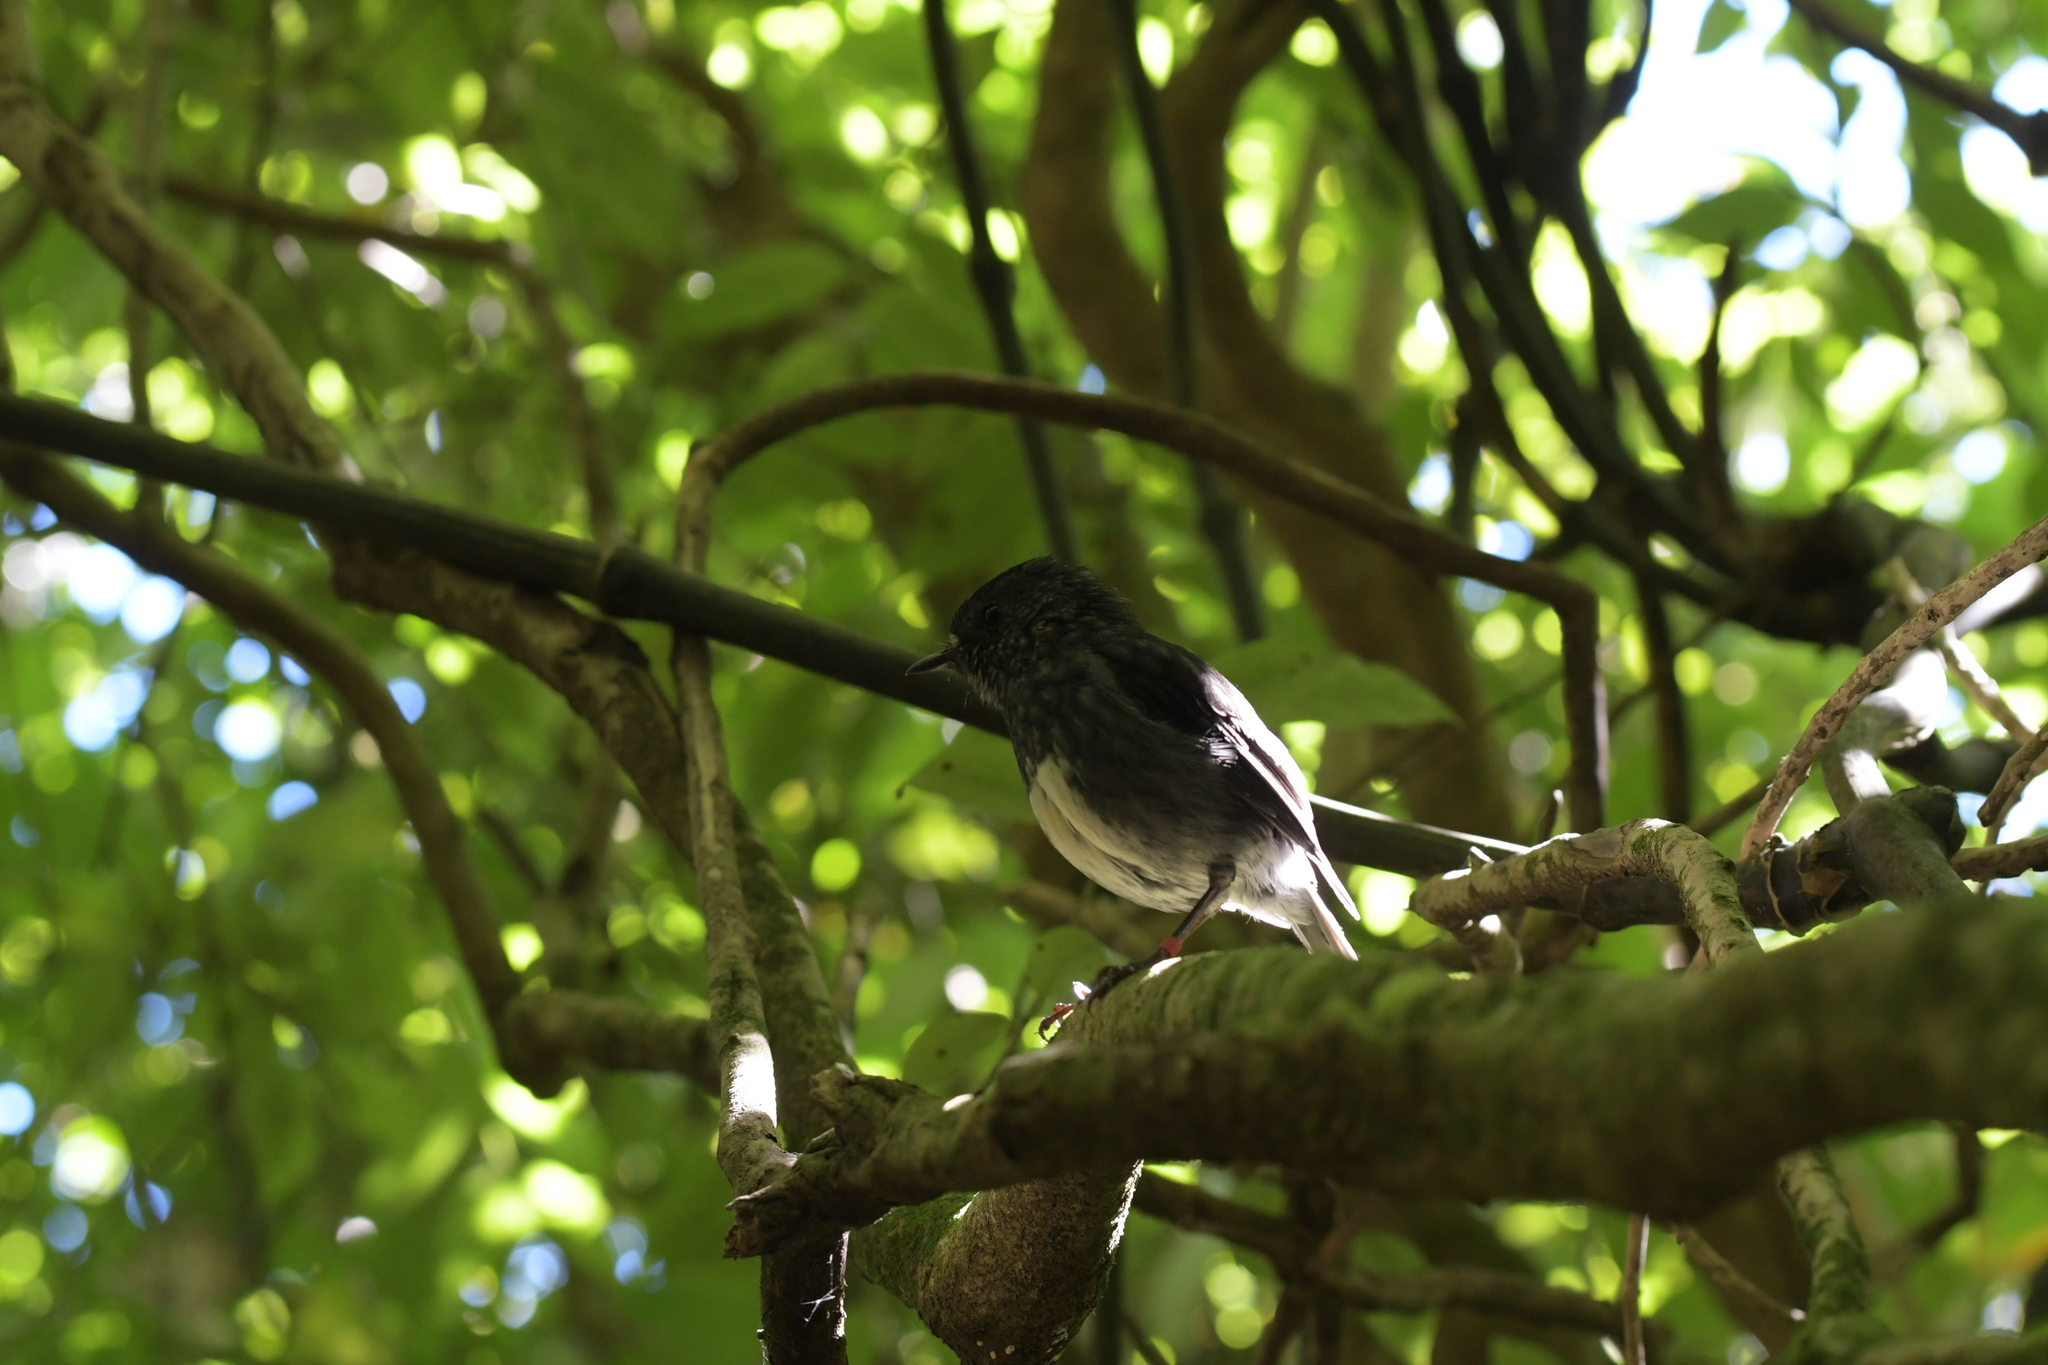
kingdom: Animalia
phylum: Chordata
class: Aves
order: Passeriformes
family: Petroicidae
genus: Petroica
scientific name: Petroica australis
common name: New zealand robin
